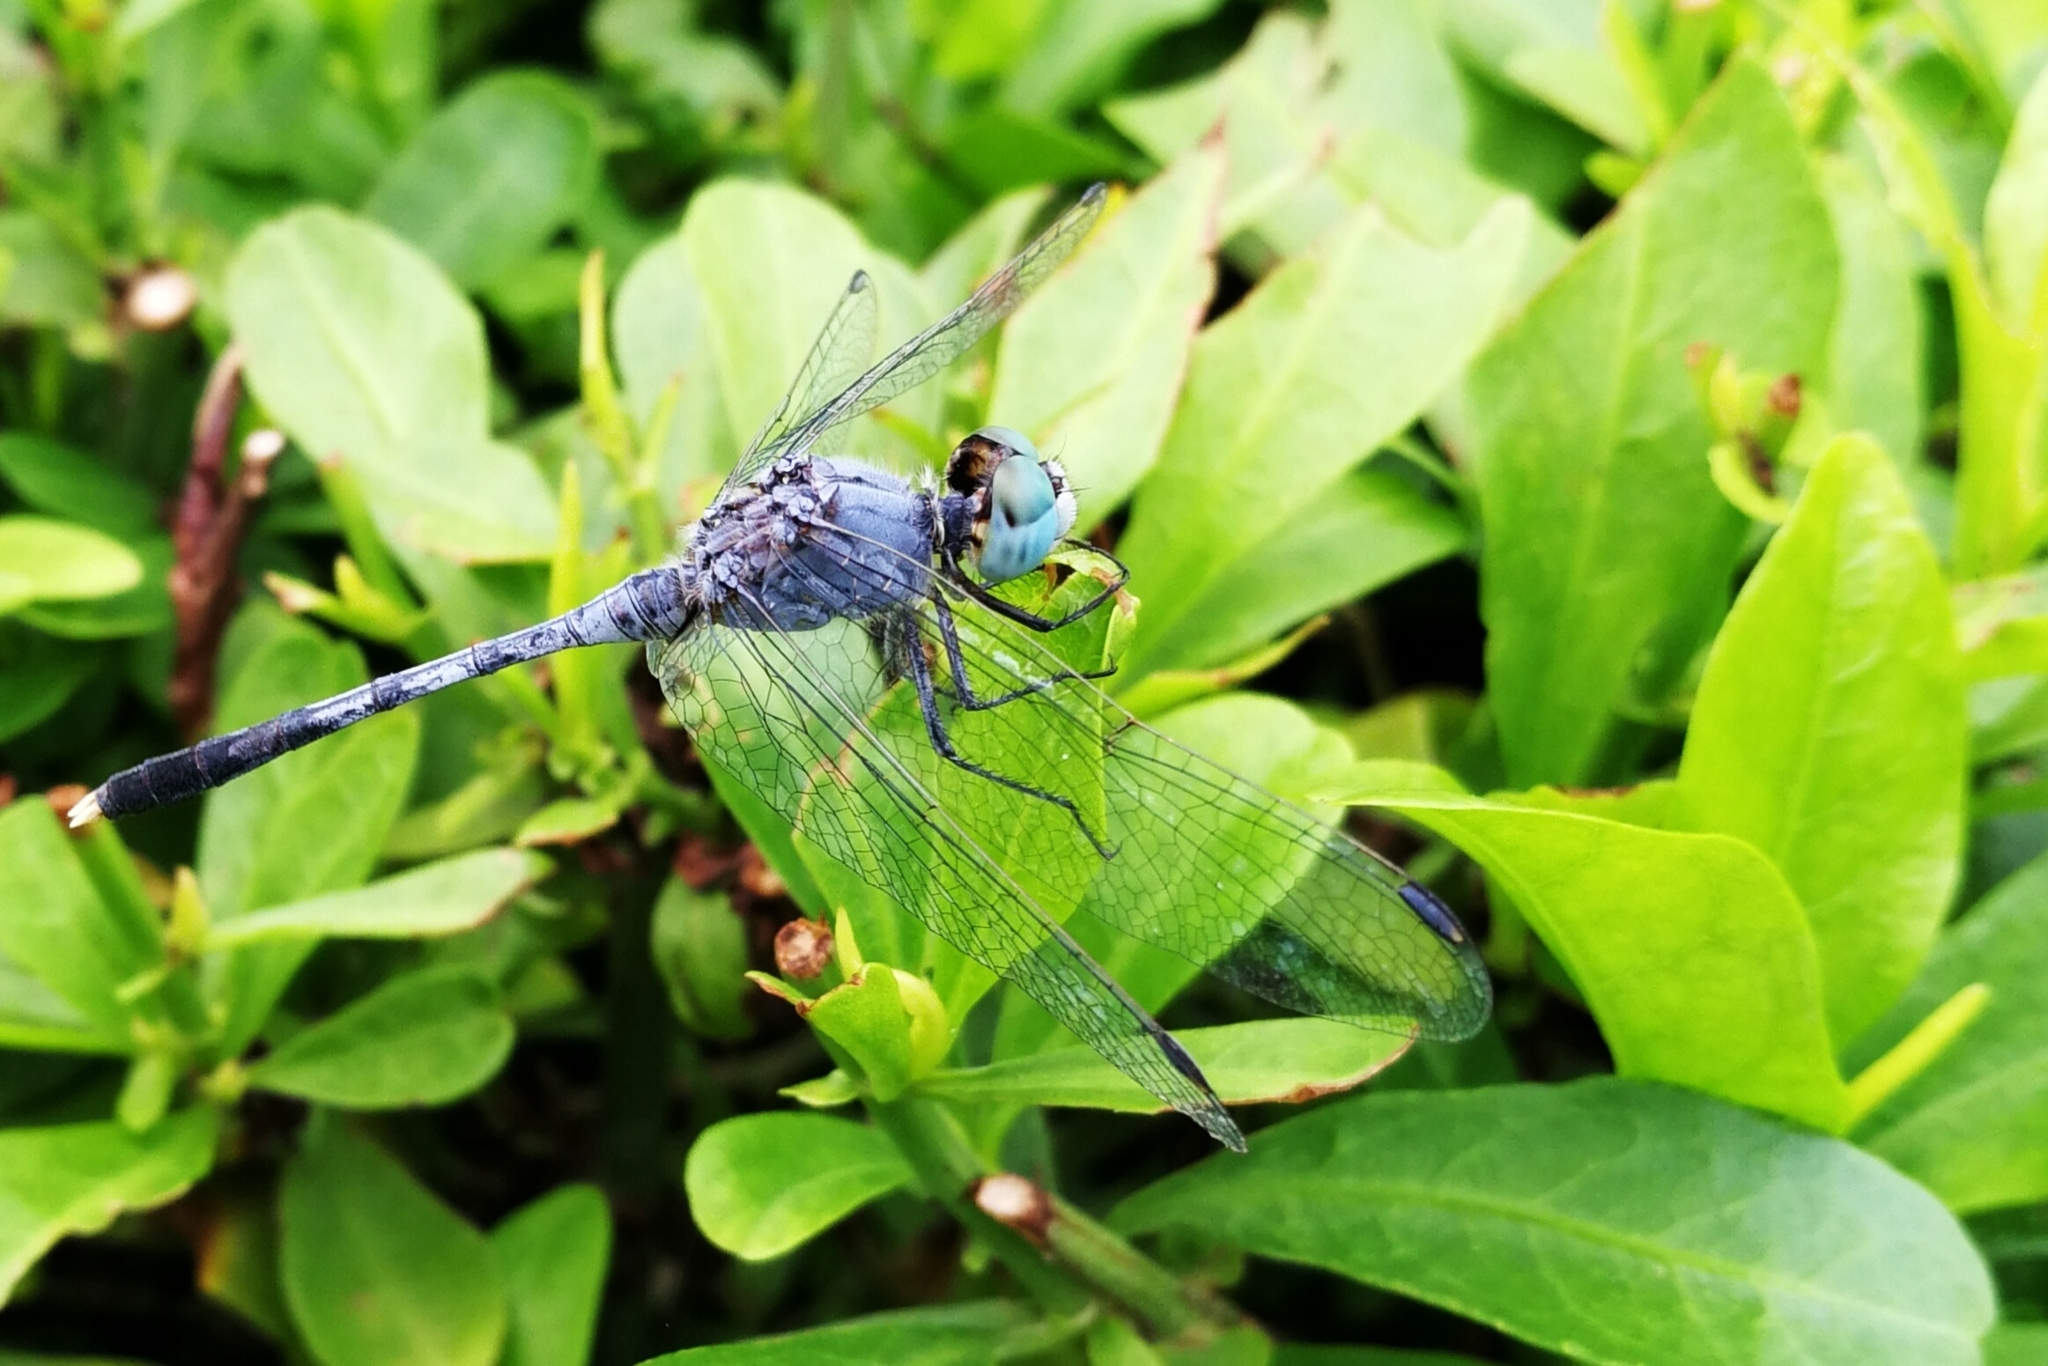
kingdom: Animalia
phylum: Arthropoda
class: Insecta
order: Odonata
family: Libellulidae
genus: Diplacodes
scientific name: Diplacodes trivialis
